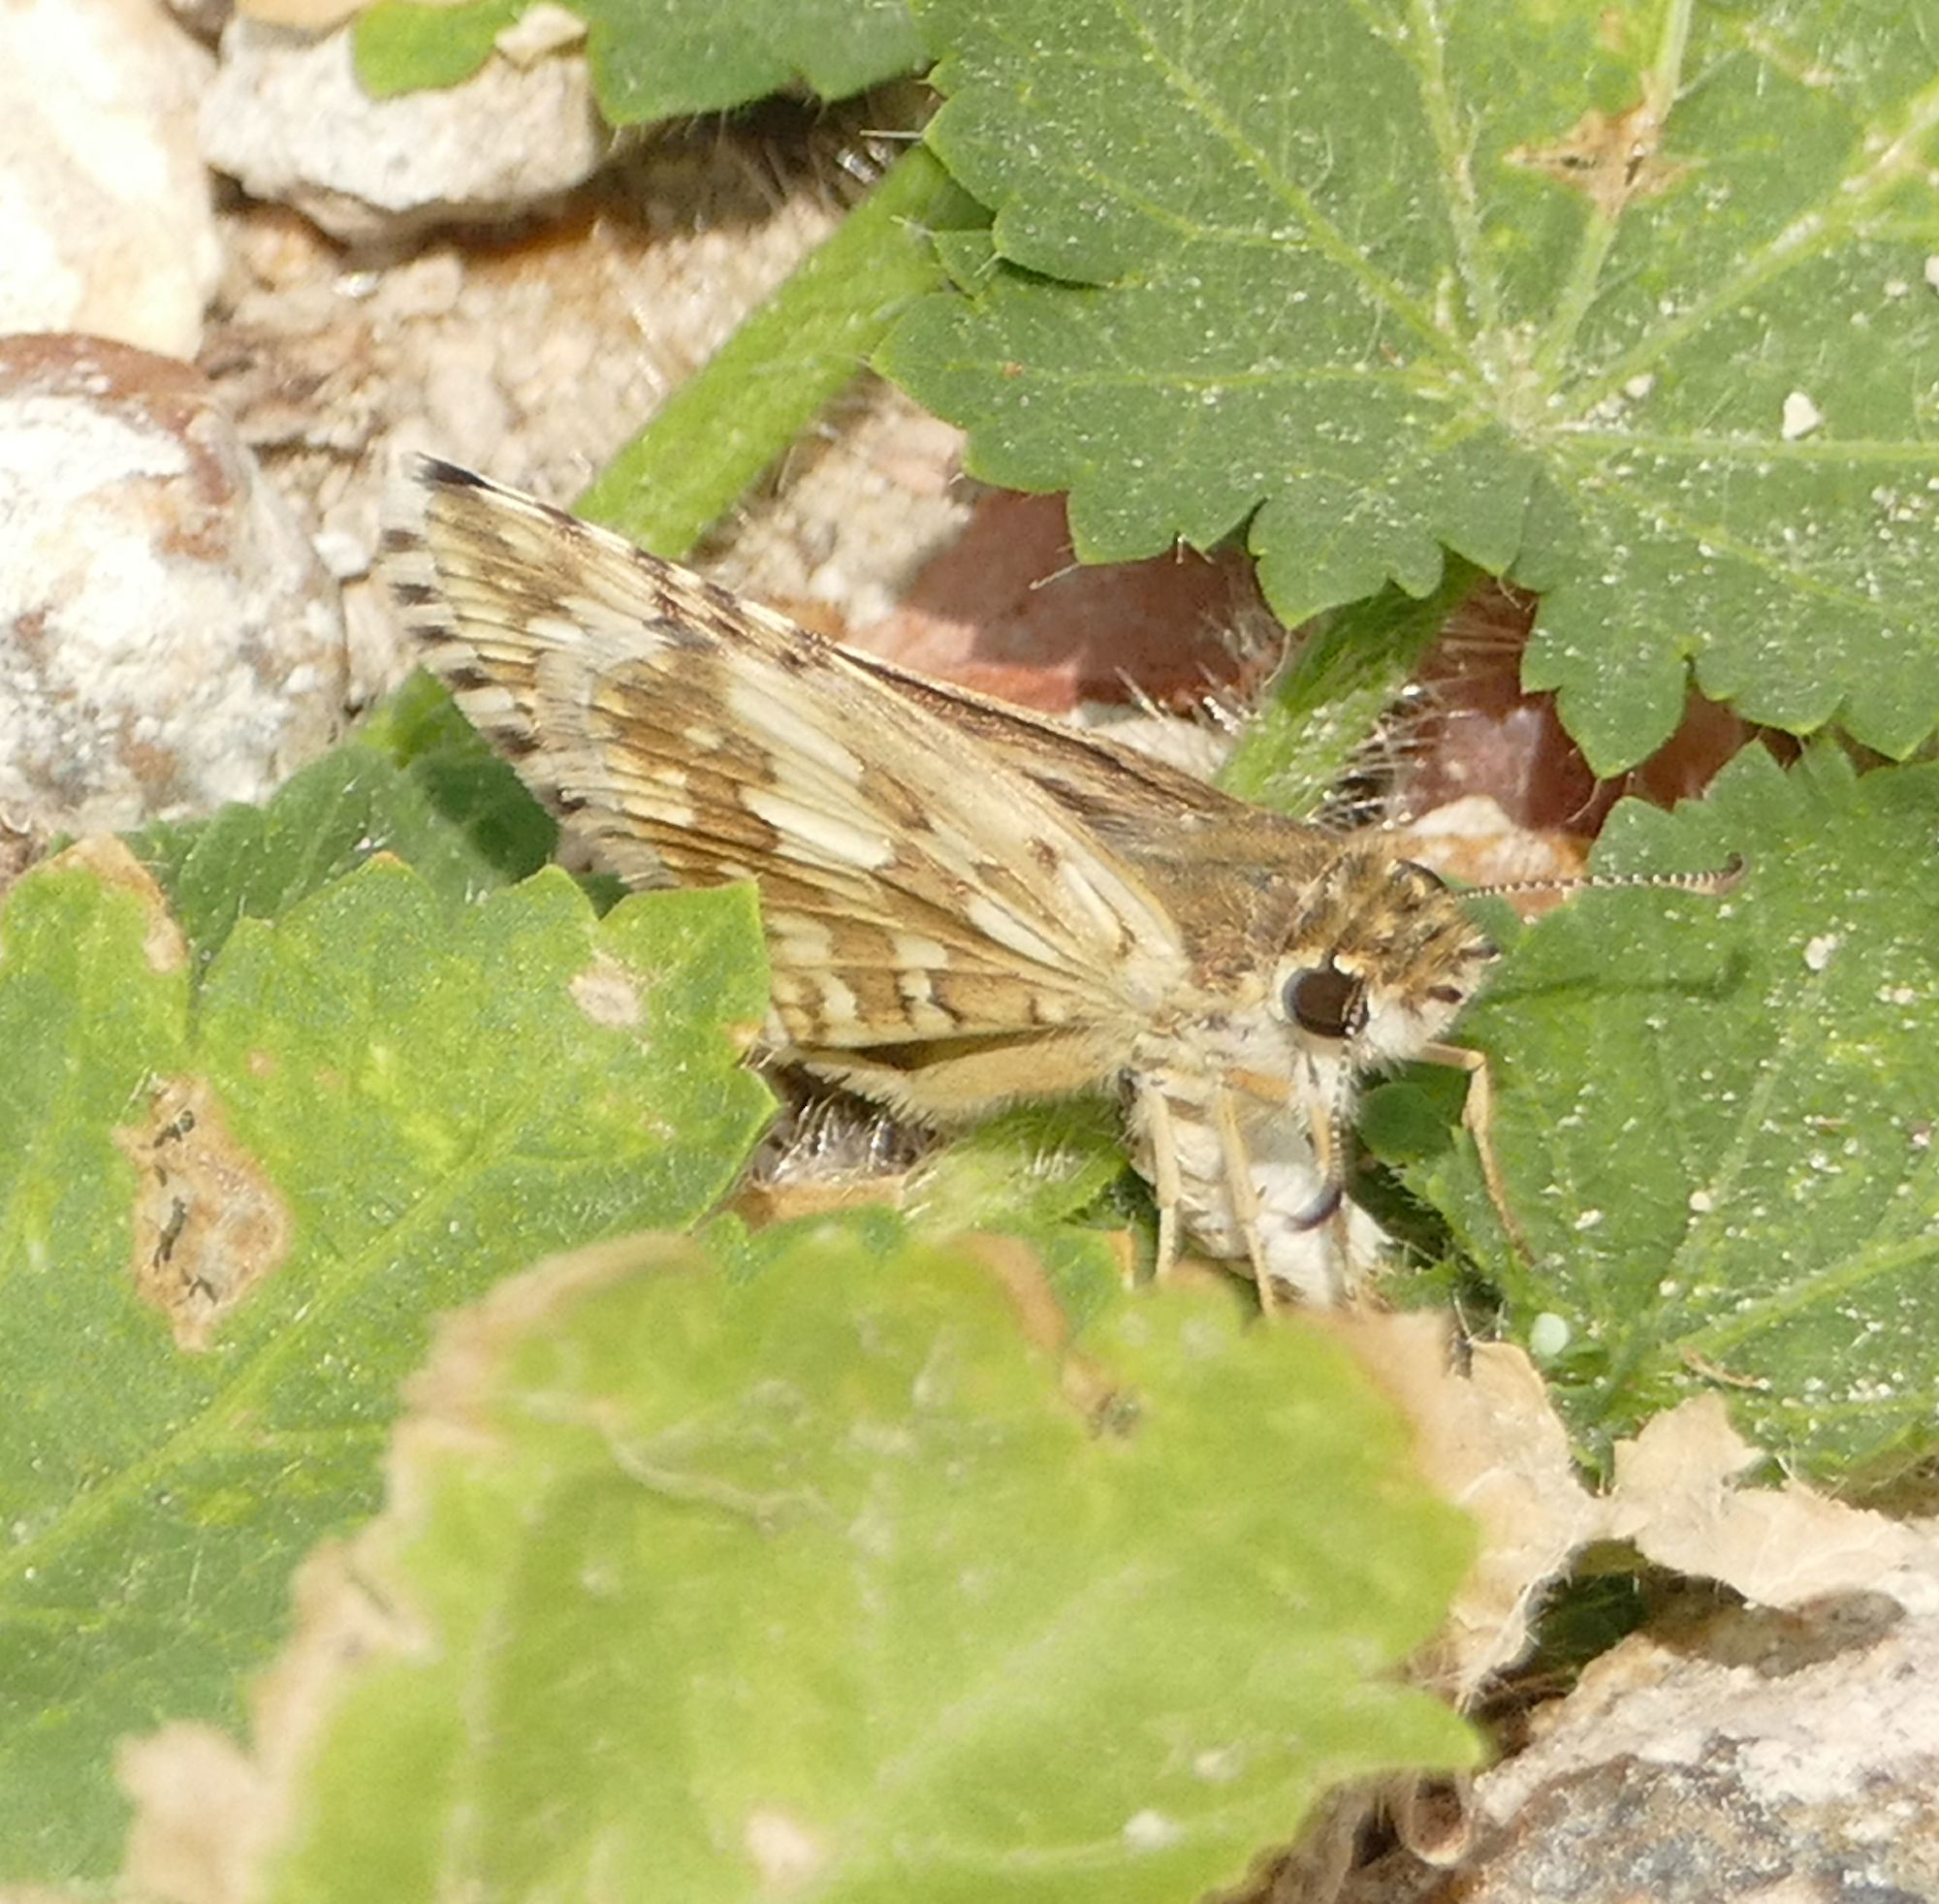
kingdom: Animalia
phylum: Arthropoda
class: Insecta
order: Lepidoptera
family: Hesperiidae
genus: Burnsius
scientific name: Burnsius
